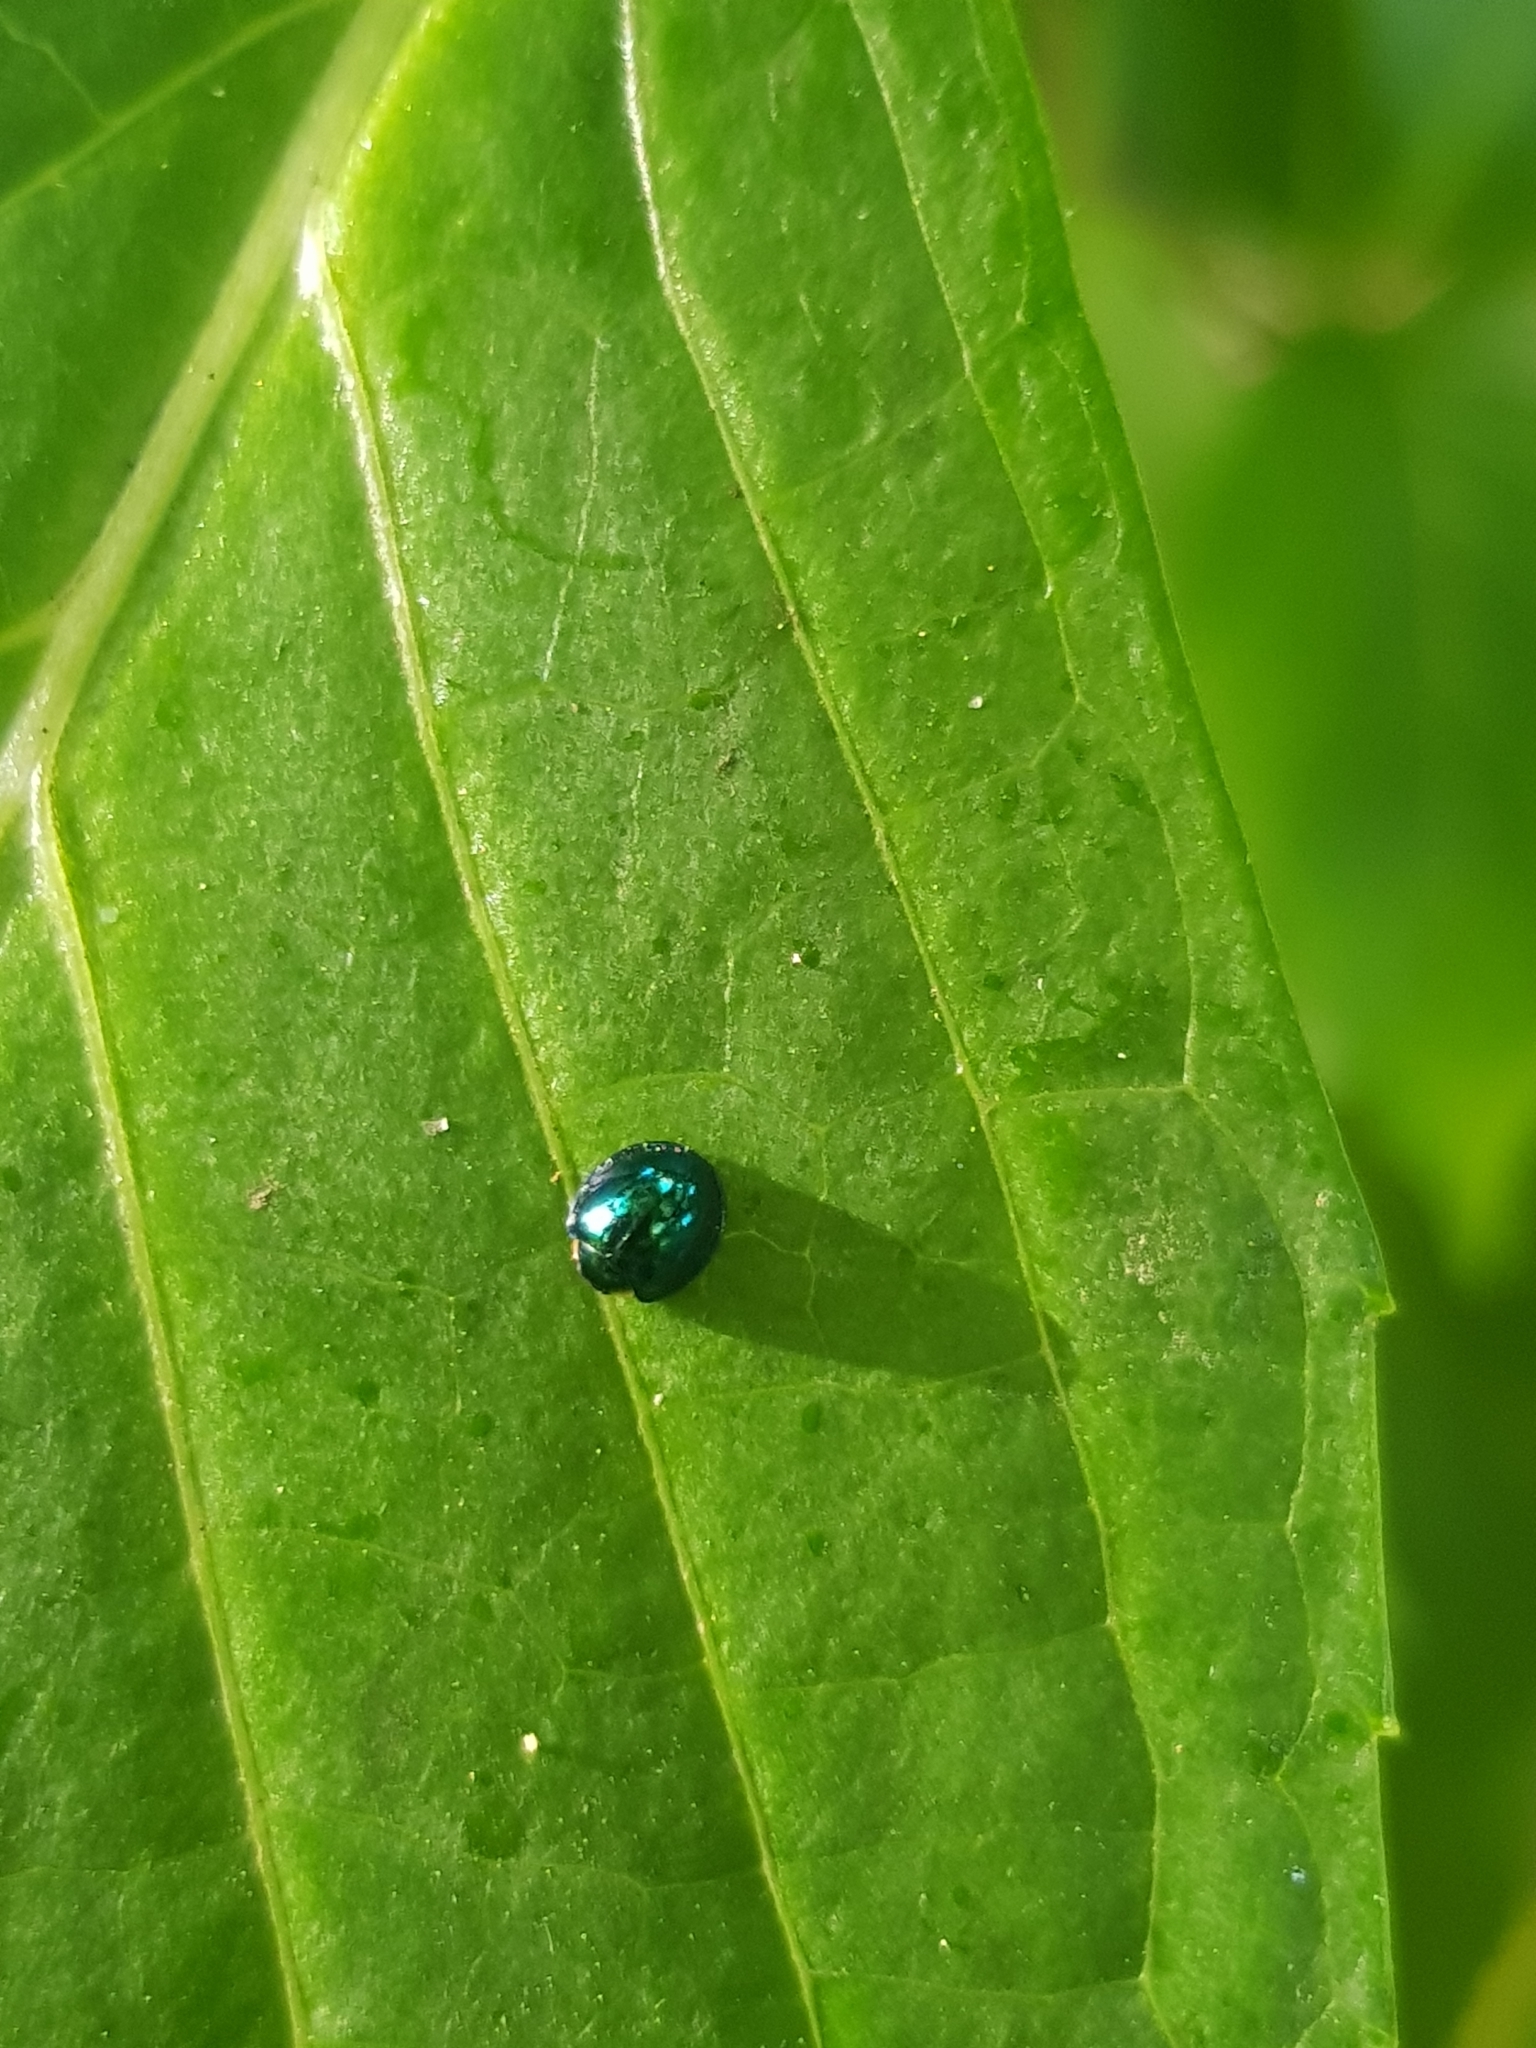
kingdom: Animalia
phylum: Arthropoda
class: Insecta
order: Coleoptera
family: Coccinellidae
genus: Halmus
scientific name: Halmus chalybeus
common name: Steel blue ladybird beetle
